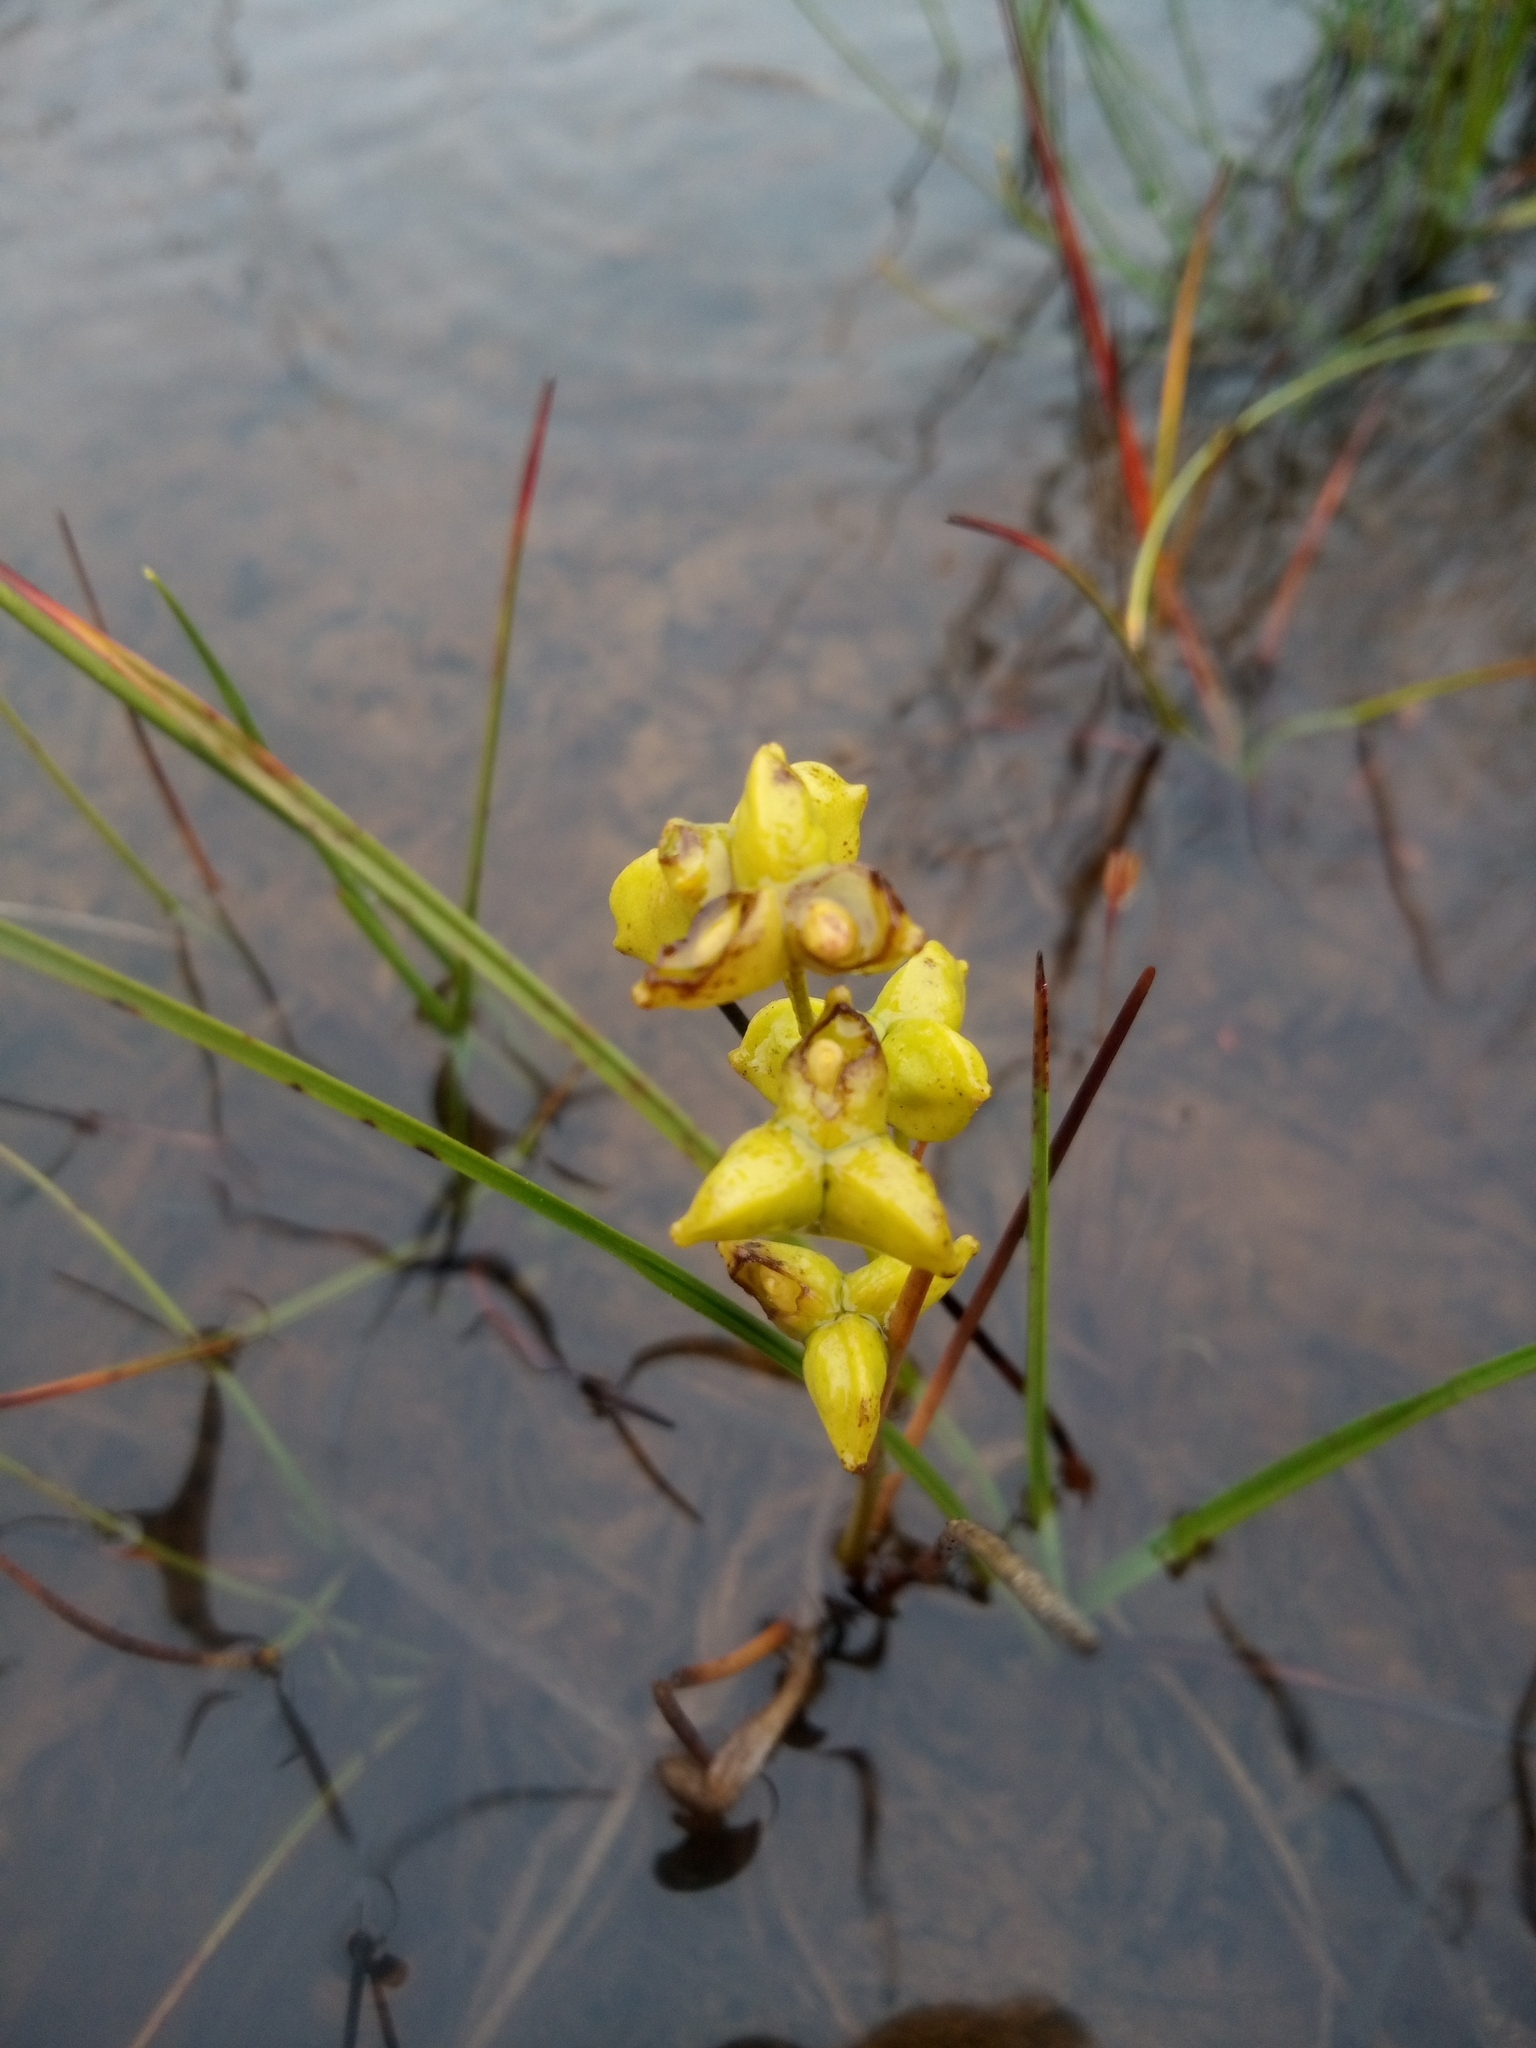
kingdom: Plantae
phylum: Tracheophyta
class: Liliopsida
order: Alismatales
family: Scheuchzeriaceae
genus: Scheuchzeria
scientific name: Scheuchzeria palustris
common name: Rannoch-rush
